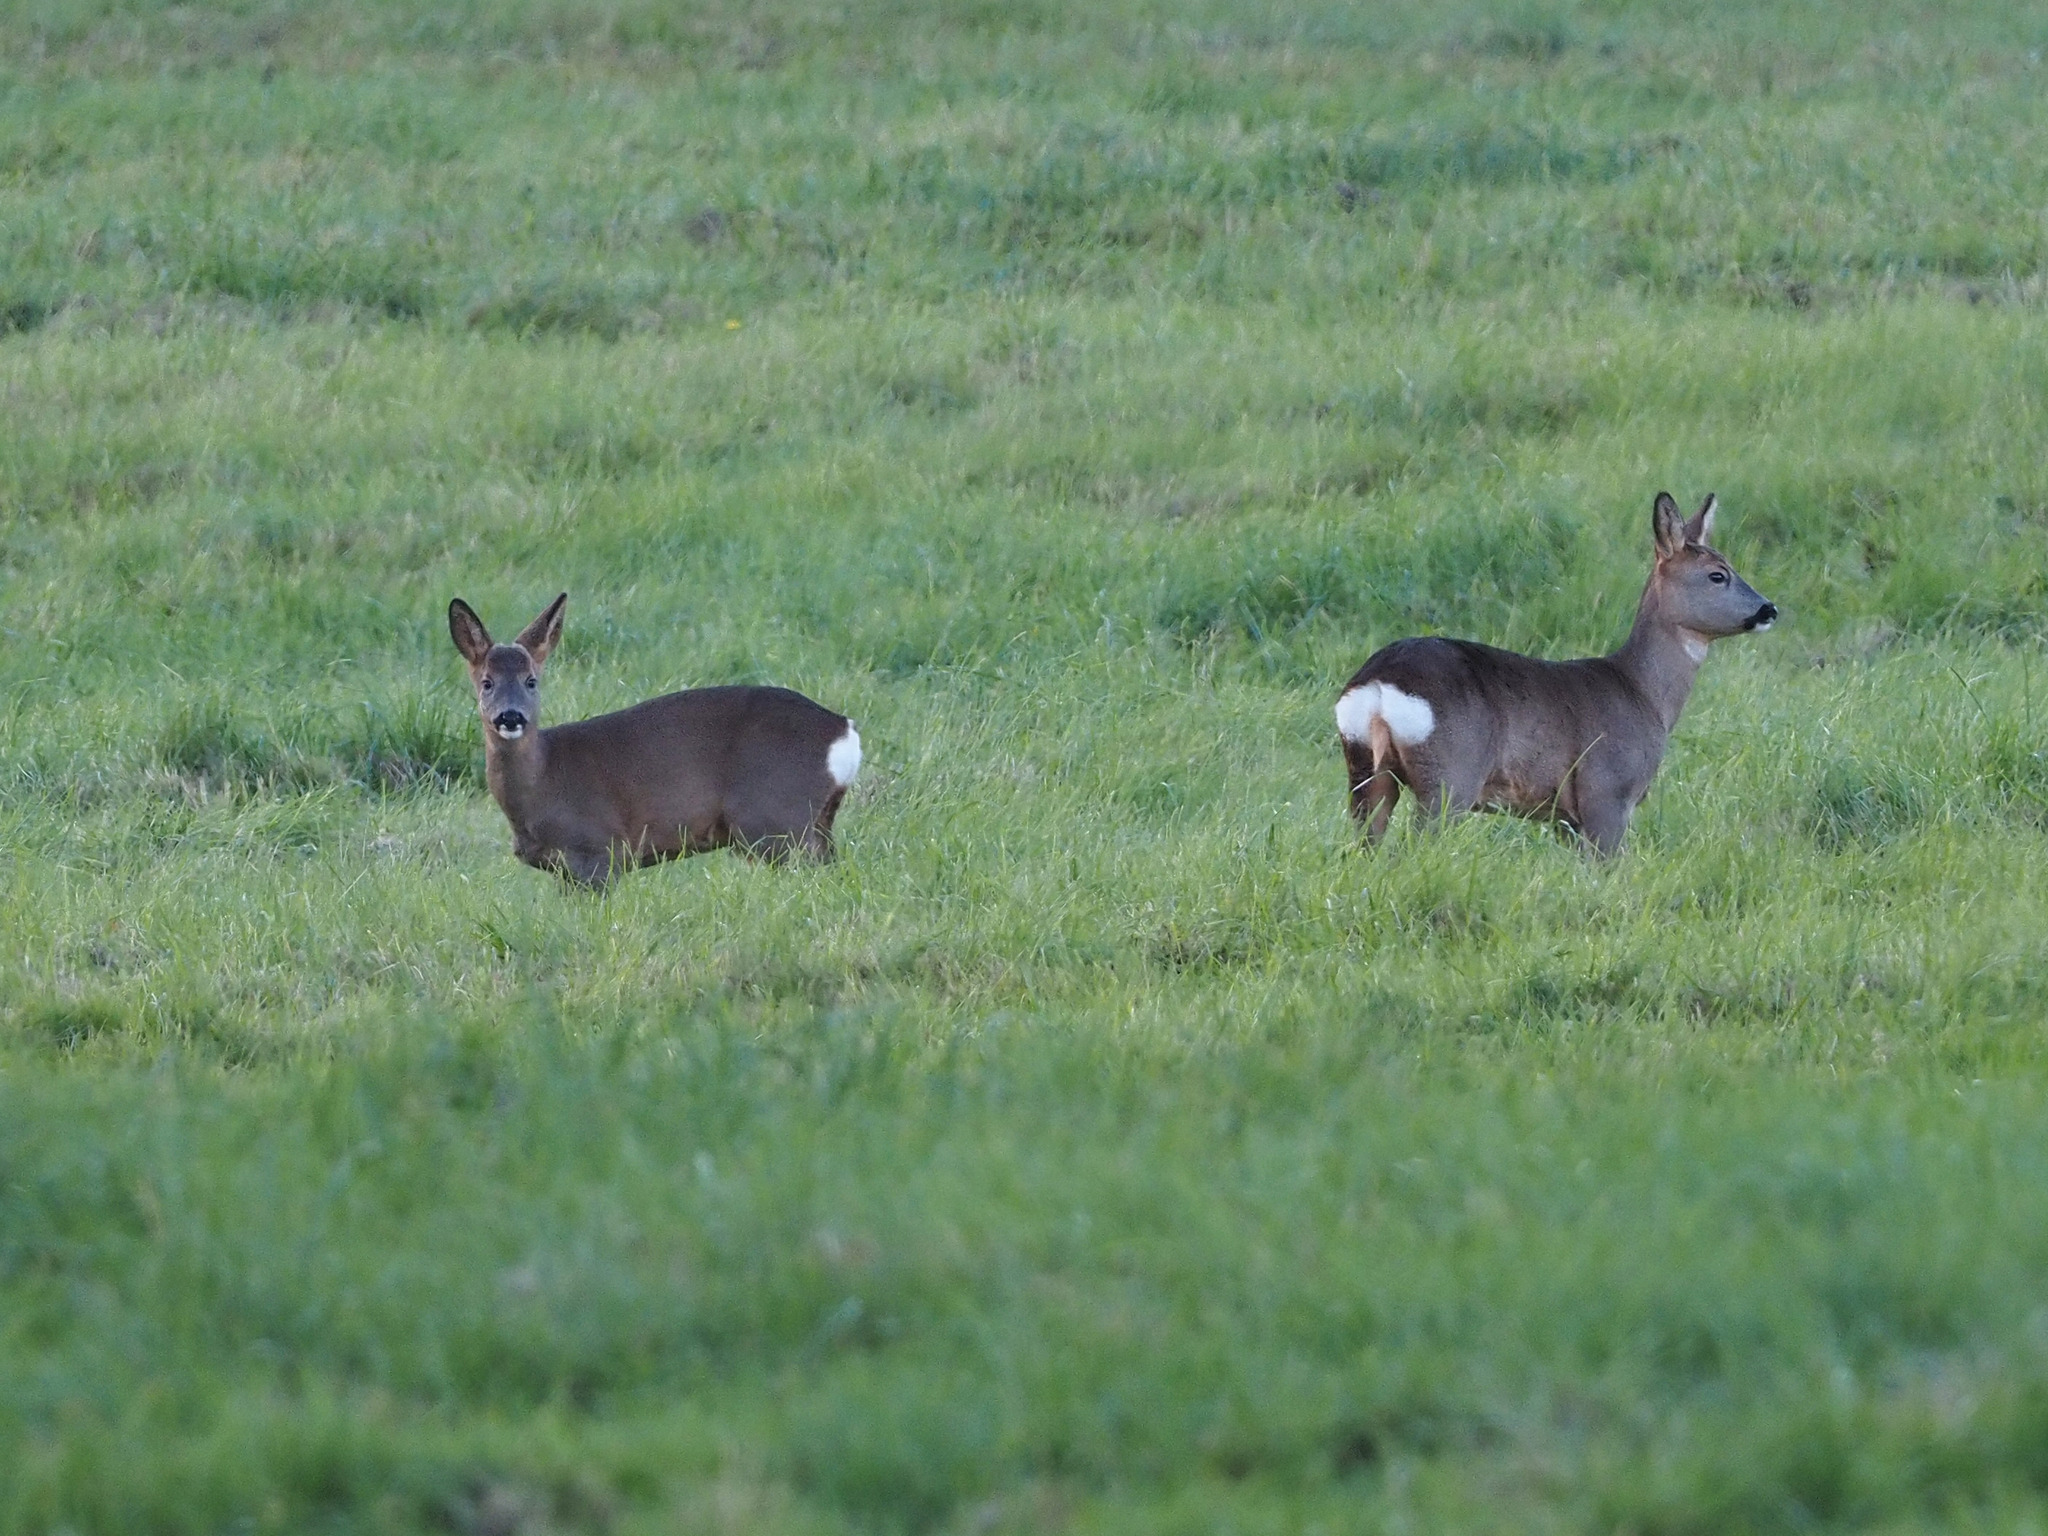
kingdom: Animalia
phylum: Chordata
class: Mammalia
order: Artiodactyla
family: Cervidae
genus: Capreolus
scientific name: Capreolus capreolus
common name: Western roe deer
